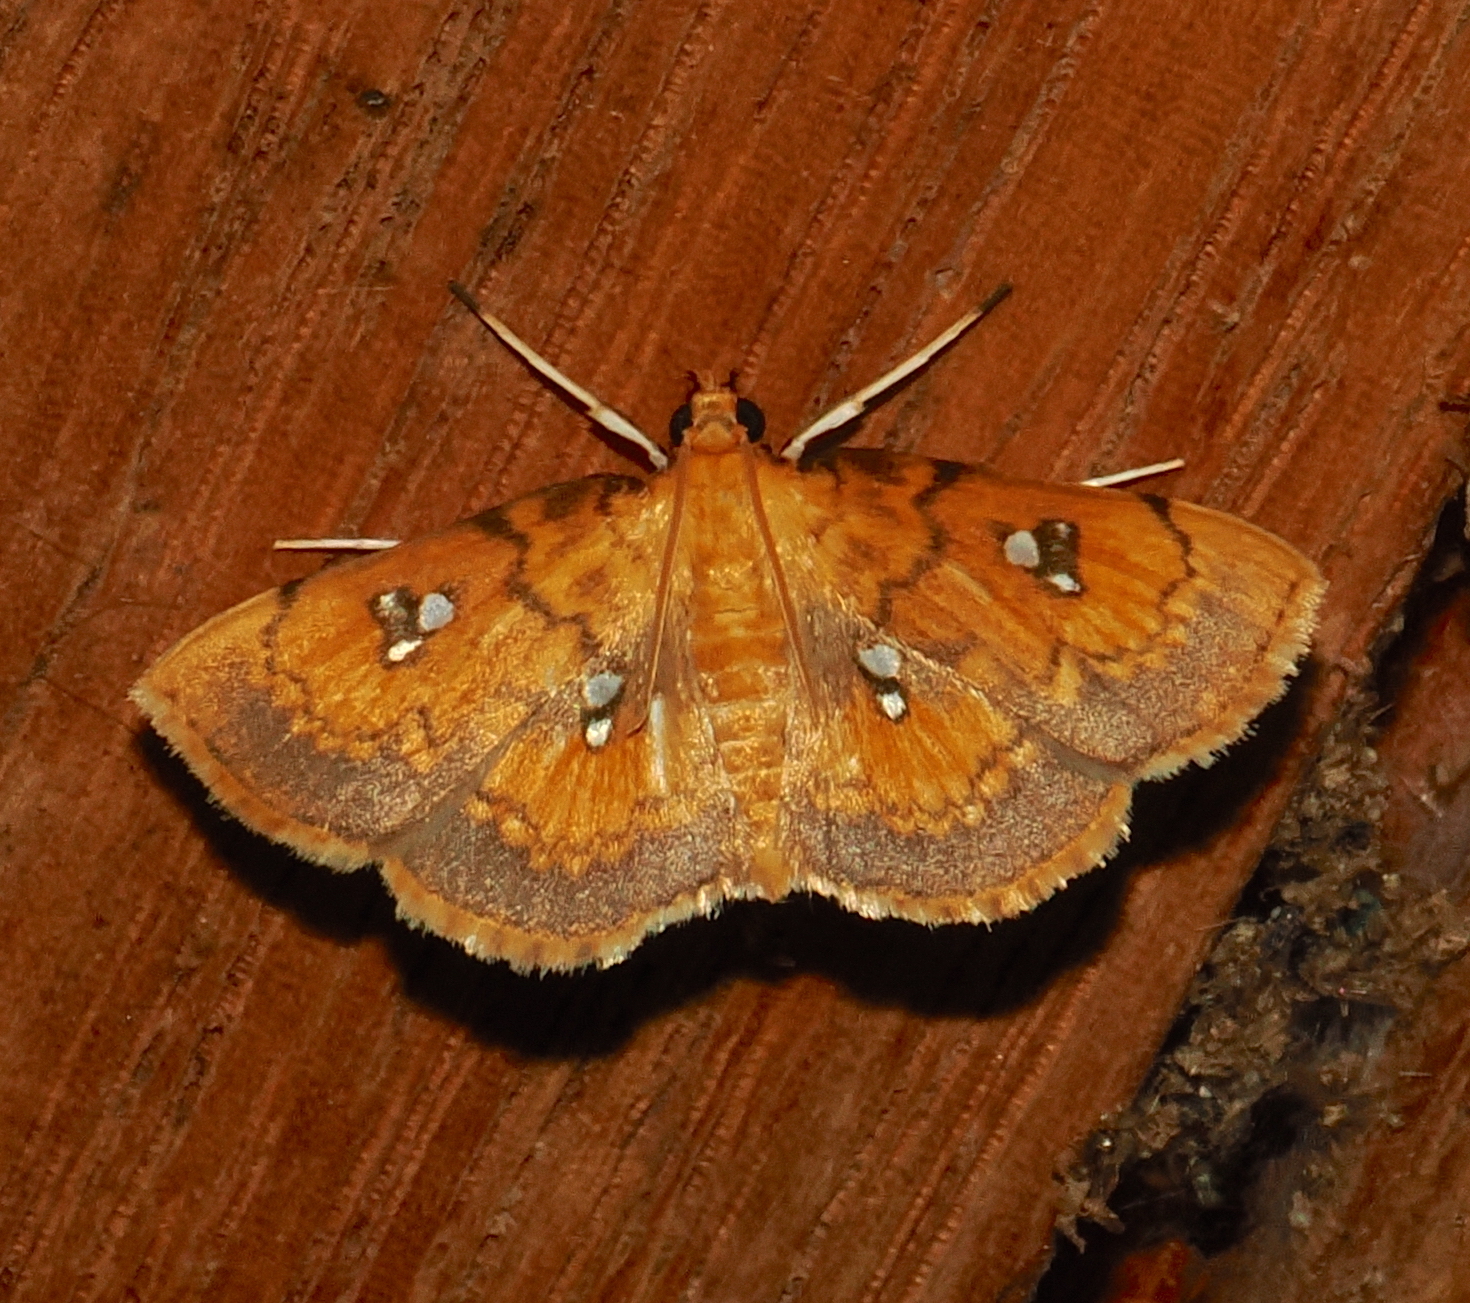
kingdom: Animalia
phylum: Arthropoda
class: Insecta
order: Lepidoptera
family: Crambidae
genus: Cacographis
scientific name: Cacographis osteolalis
